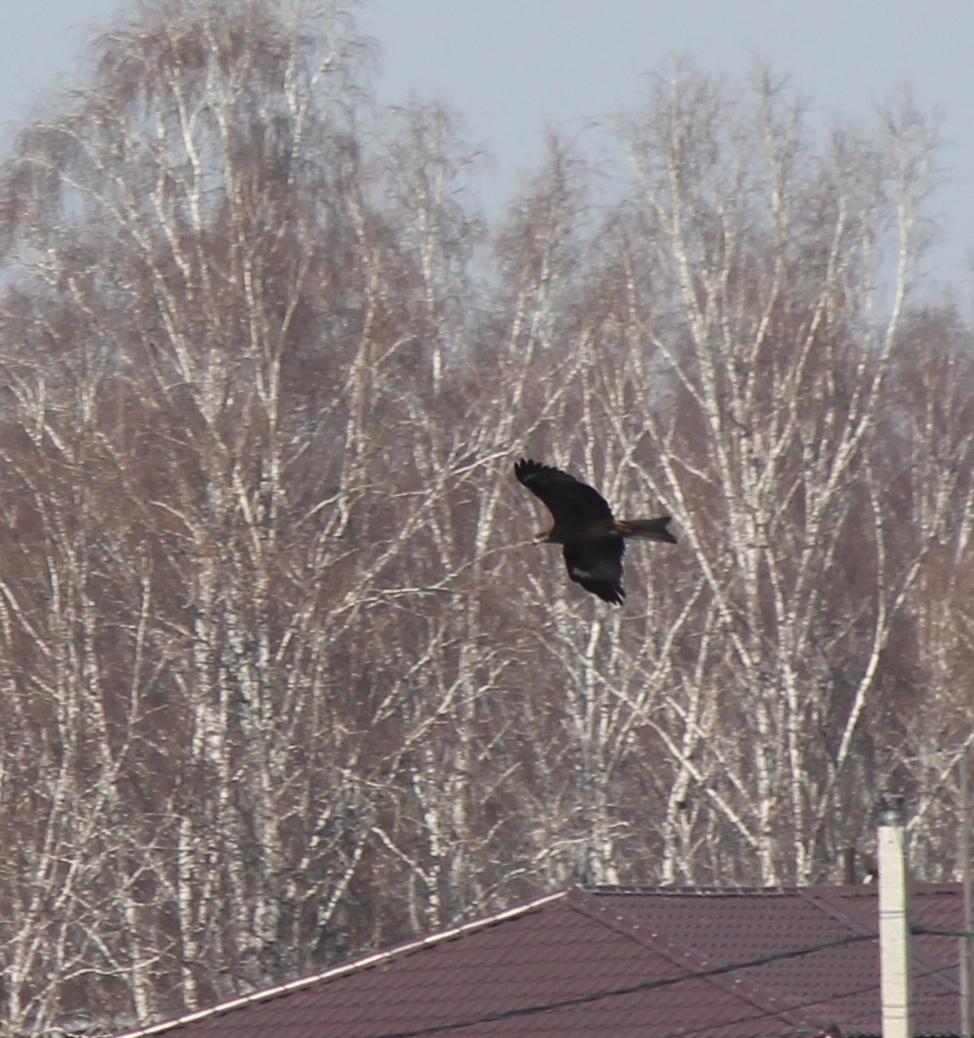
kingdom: Animalia
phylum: Chordata
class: Aves
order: Accipitriformes
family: Accipitridae
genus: Milvus
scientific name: Milvus migrans
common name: Black kite
